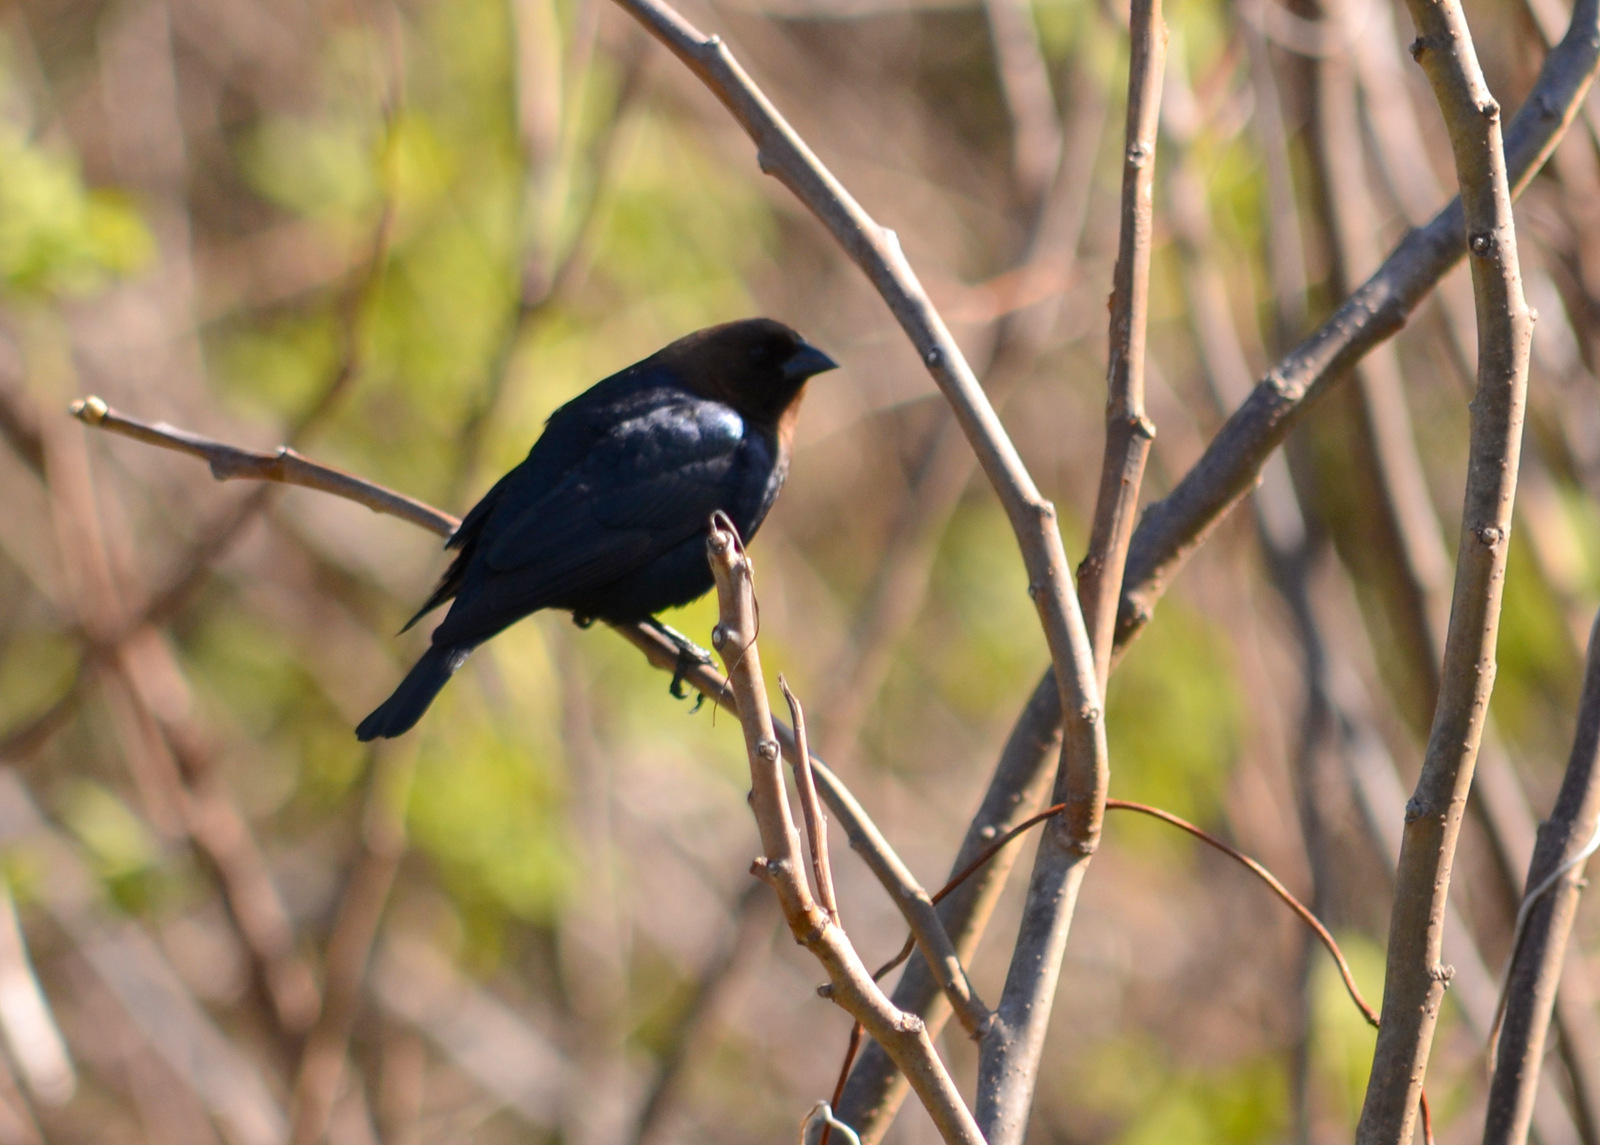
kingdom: Animalia
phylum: Chordata
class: Aves
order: Passeriformes
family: Icteridae
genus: Molothrus
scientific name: Molothrus ater
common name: Brown-headed cowbird
